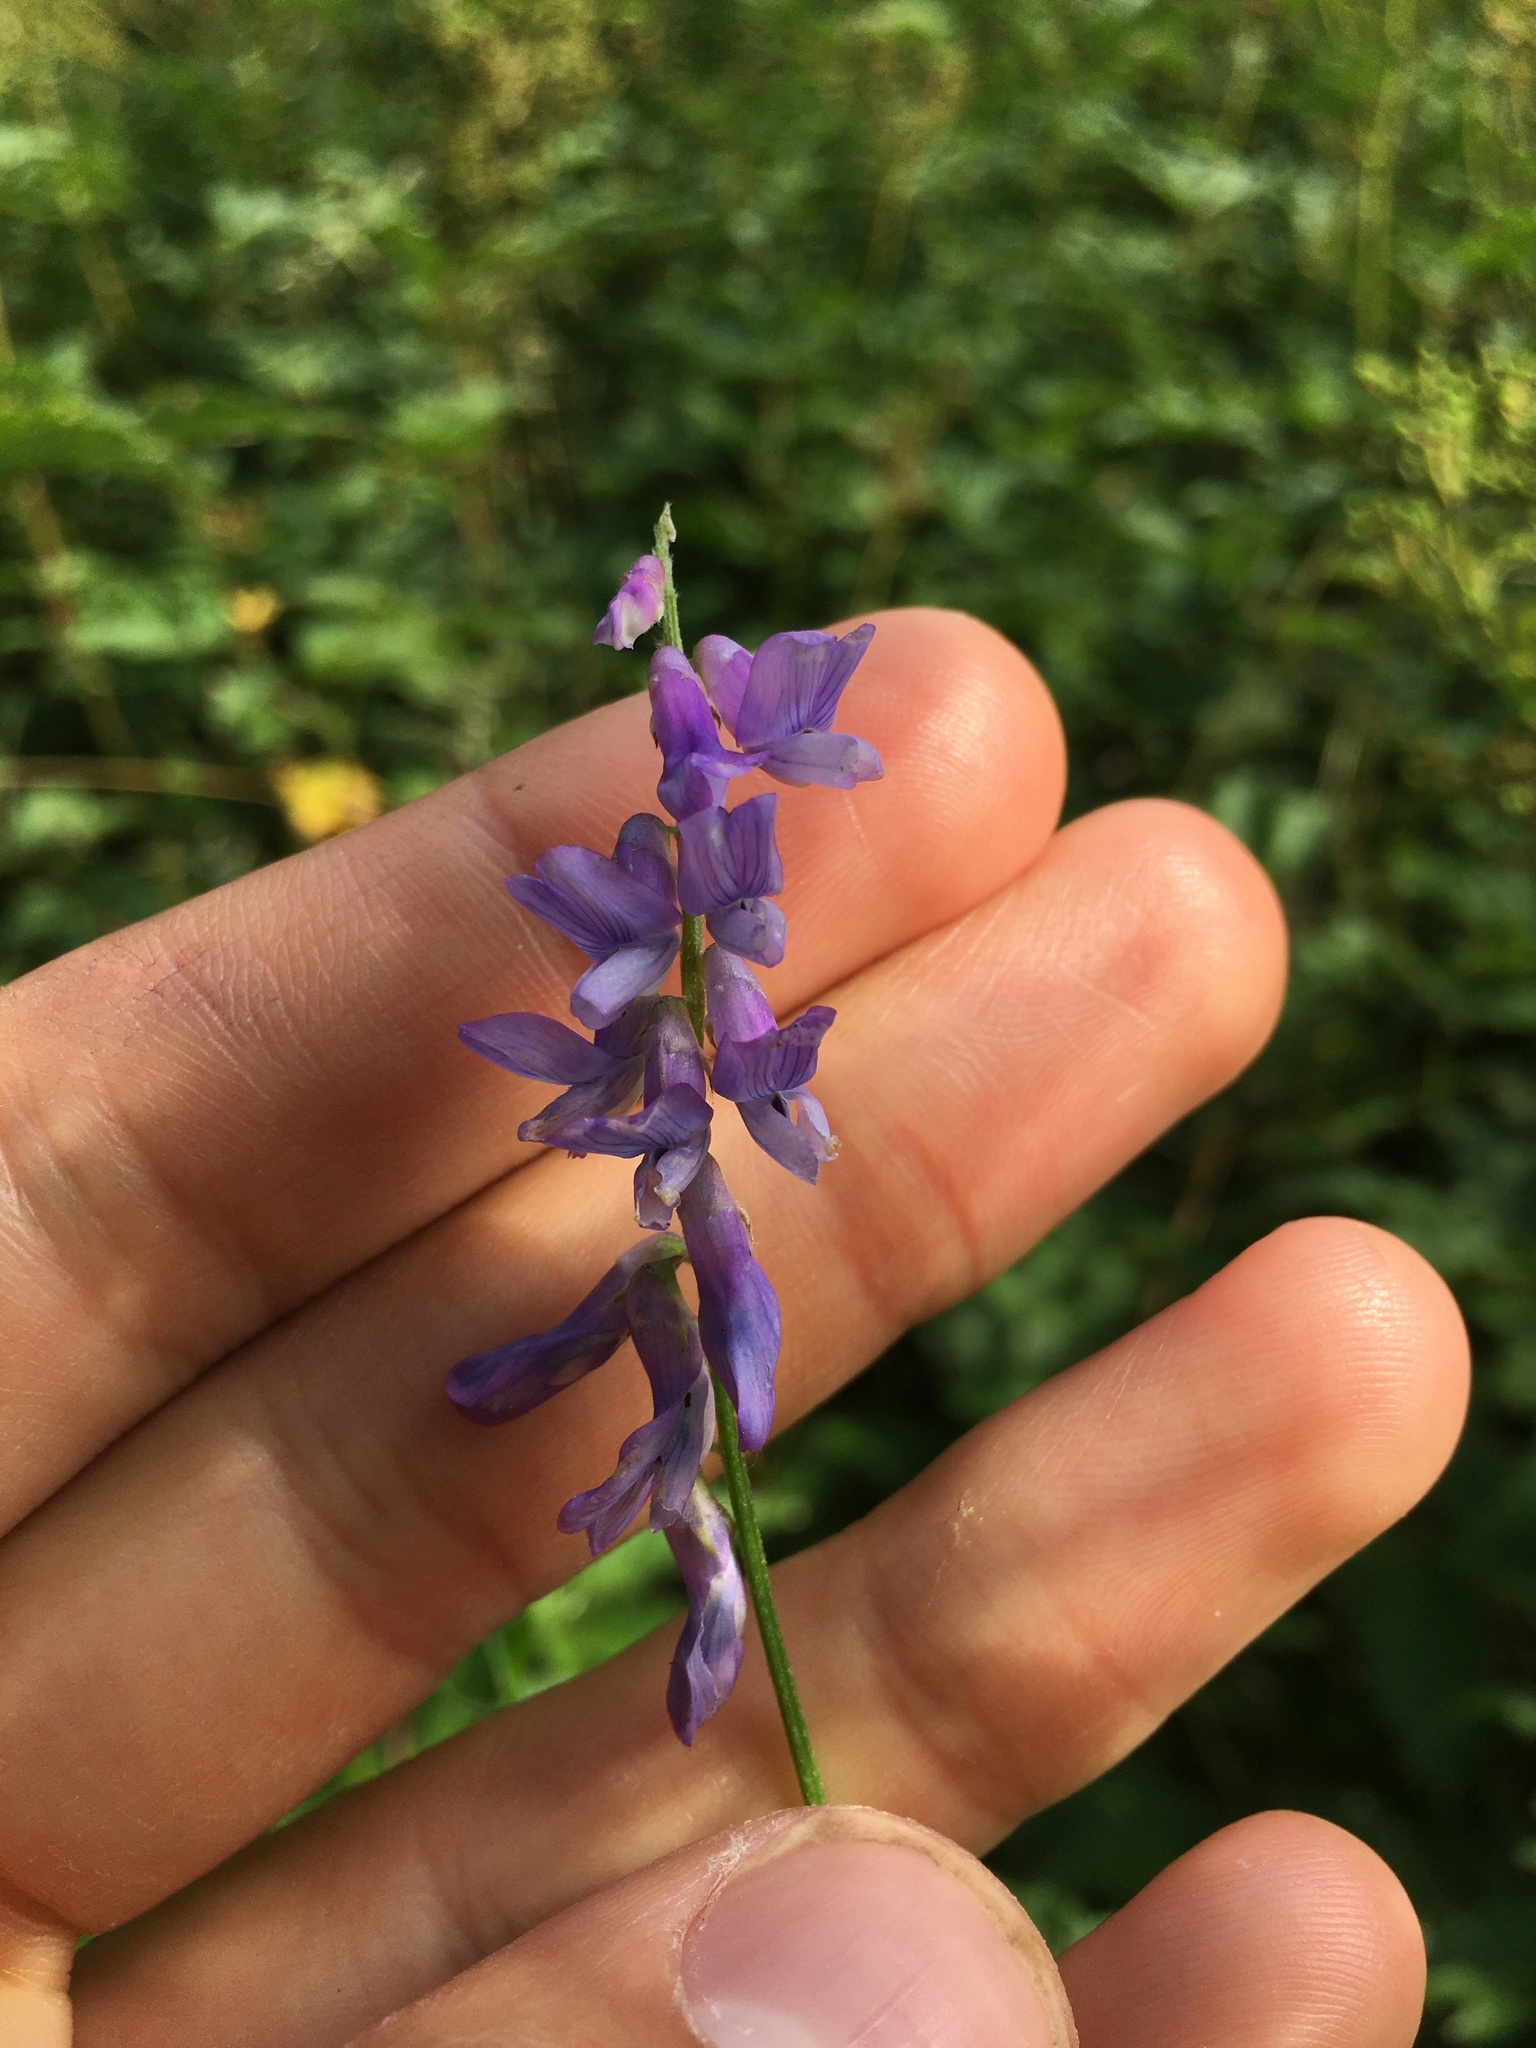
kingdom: Plantae
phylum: Tracheophyta
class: Magnoliopsida
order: Fabales
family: Fabaceae
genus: Vicia
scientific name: Vicia cracca
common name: Bird vetch
